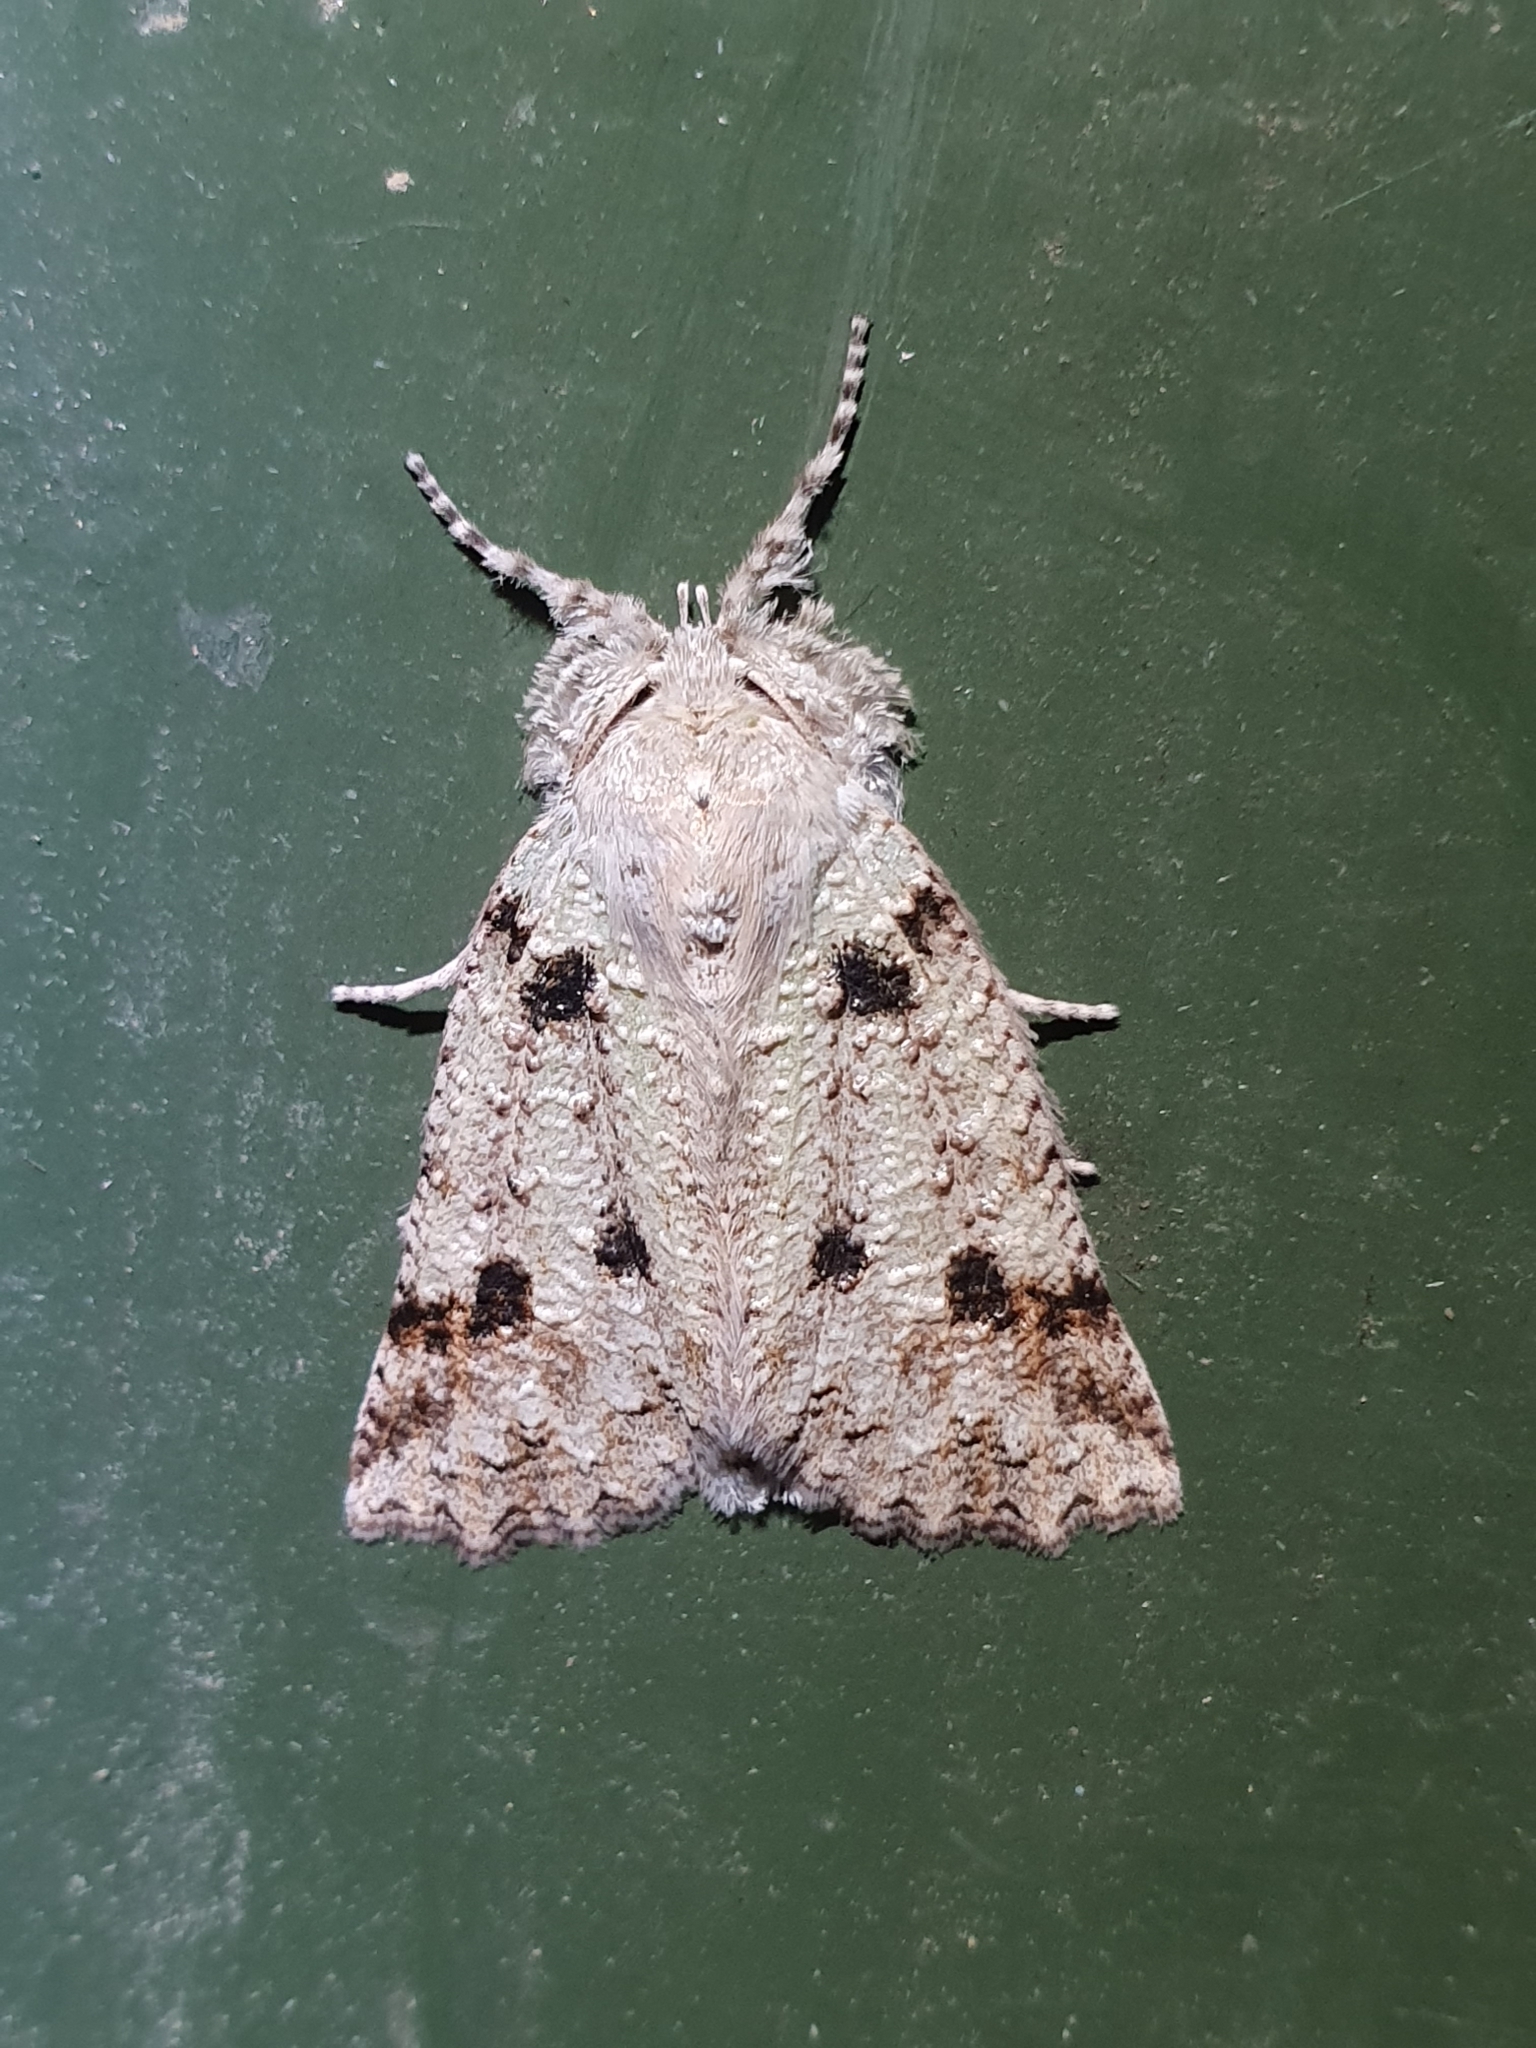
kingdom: Animalia
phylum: Arthropoda
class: Insecta
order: Lepidoptera
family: Geometridae
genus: Declana
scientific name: Declana floccosa
